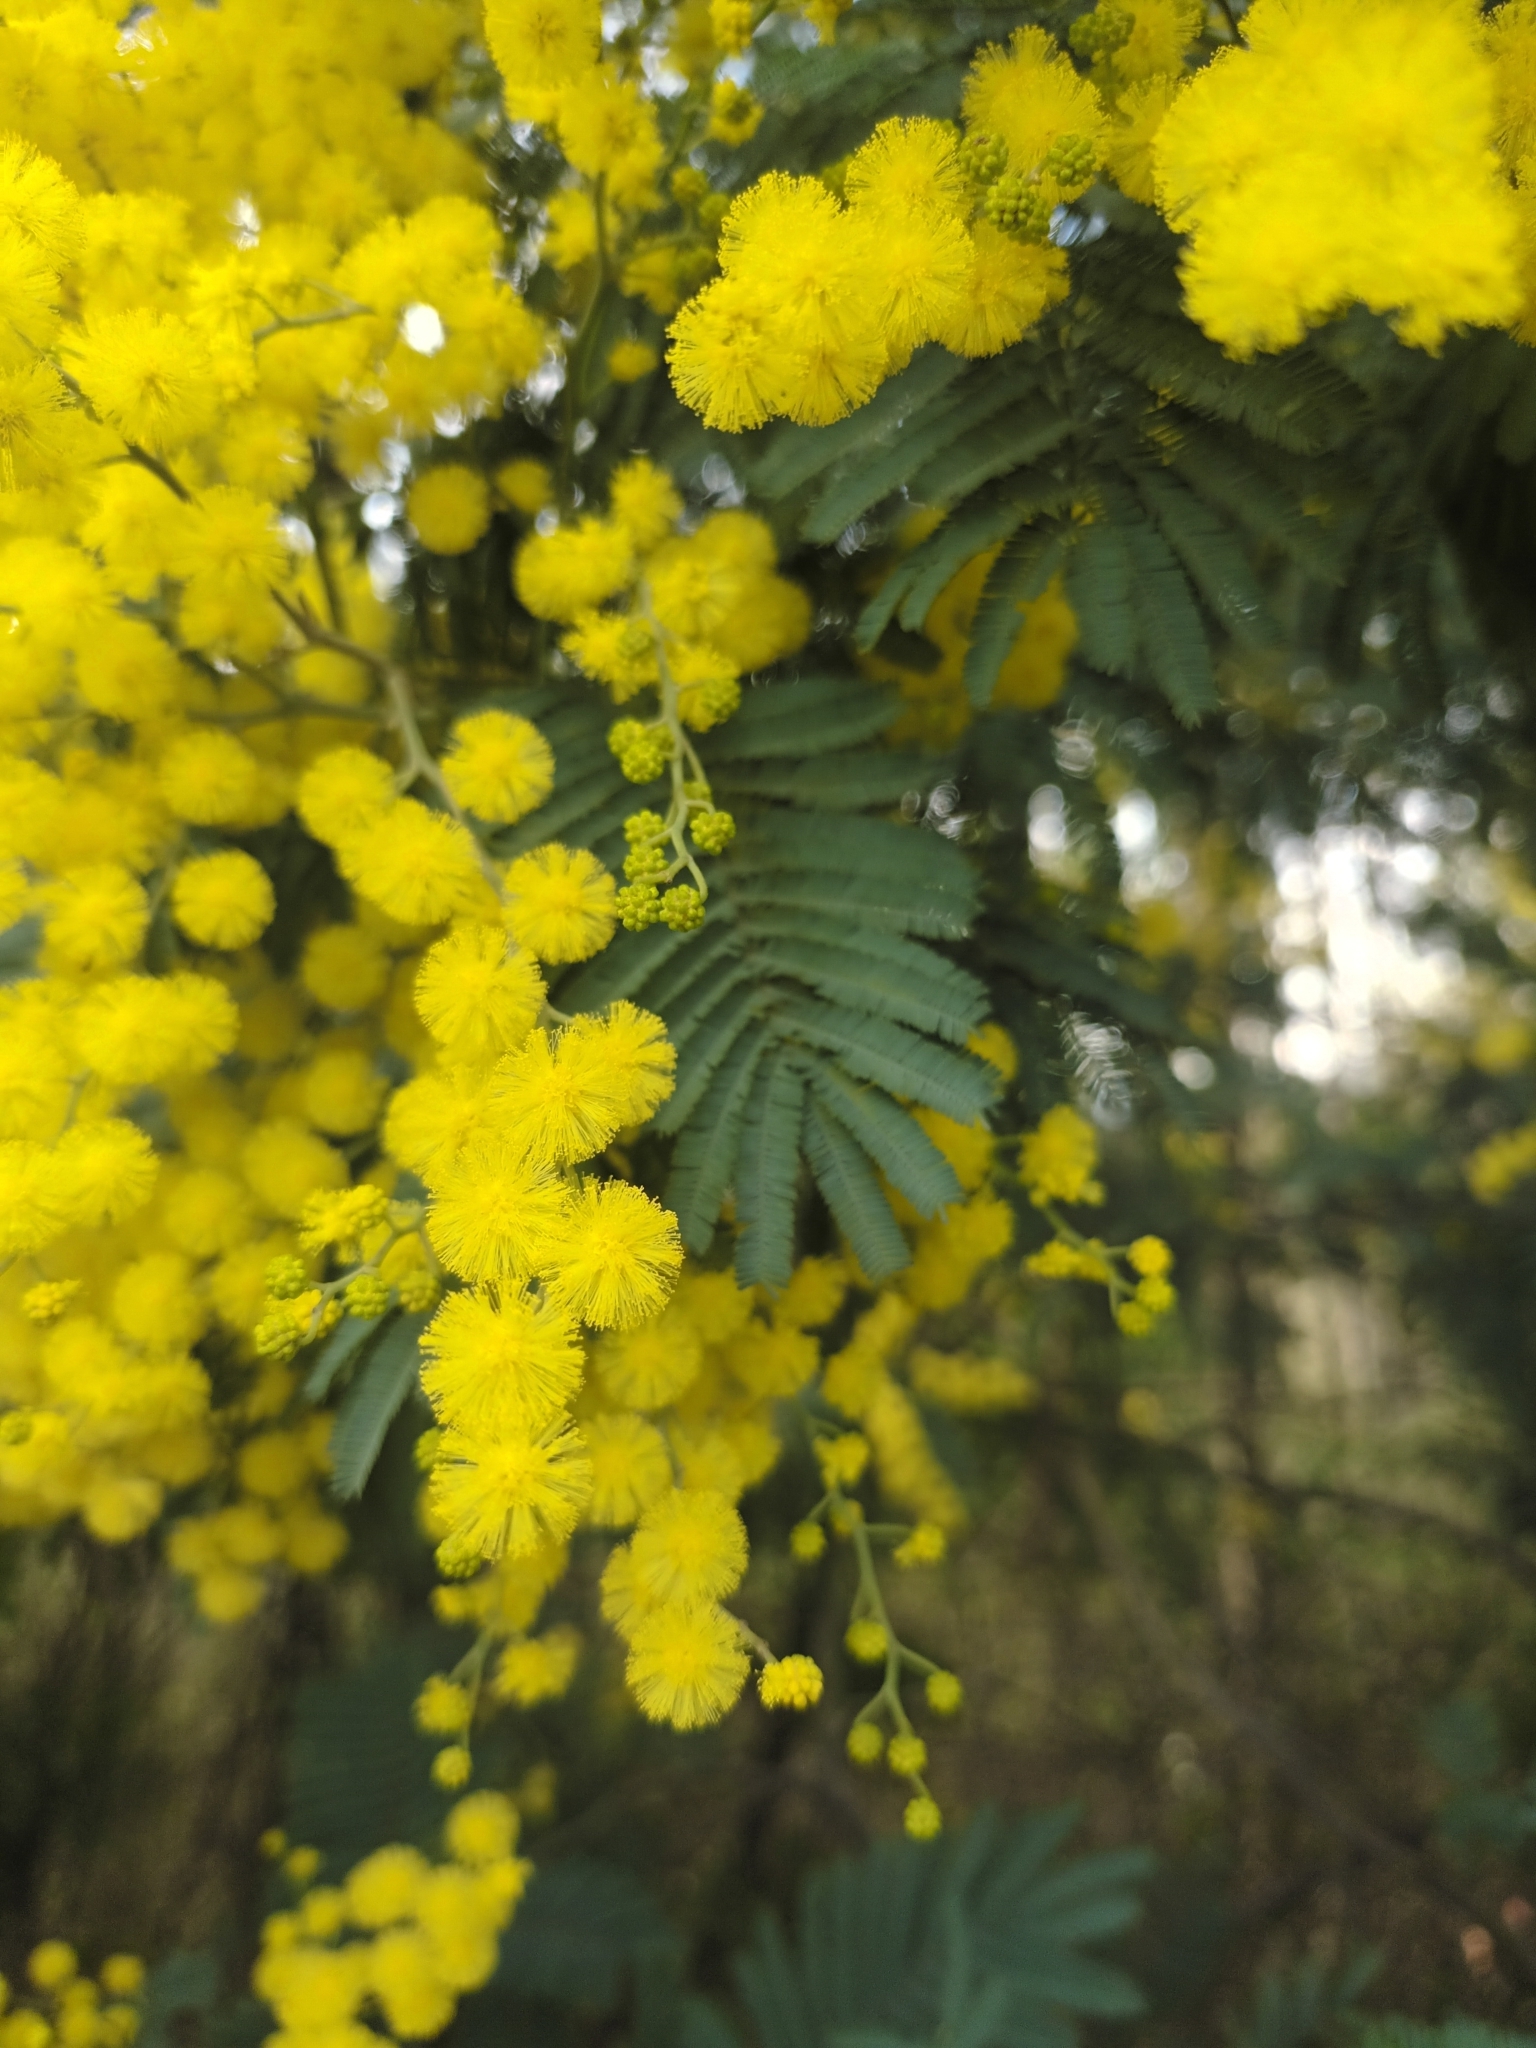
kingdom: Plantae
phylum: Tracheophyta
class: Magnoliopsida
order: Fabales
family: Fabaceae
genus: Acacia
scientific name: Acacia dealbata
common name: Silver wattle
